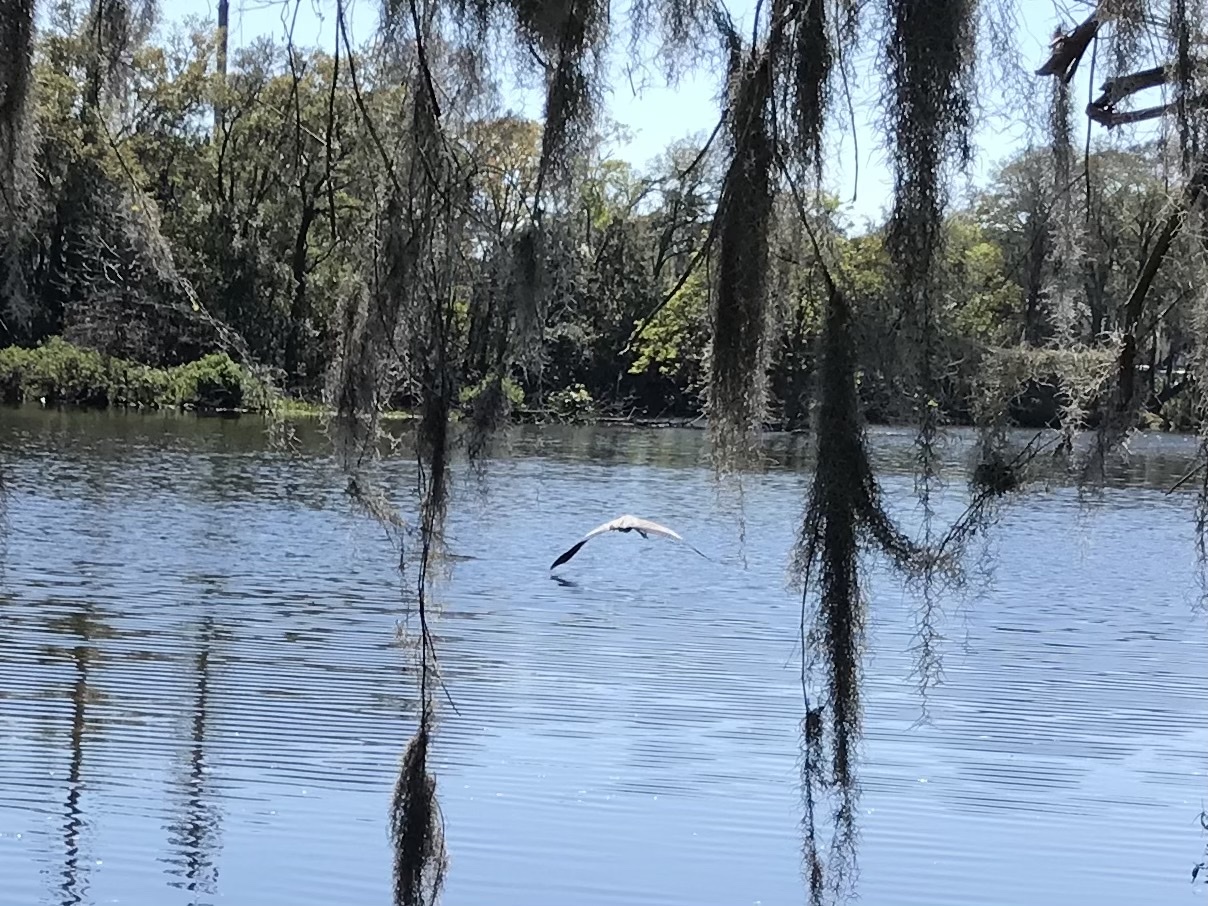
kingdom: Animalia
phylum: Chordata
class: Aves
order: Pelecaniformes
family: Ardeidae
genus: Ardea
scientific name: Ardea alba
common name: Great egret
